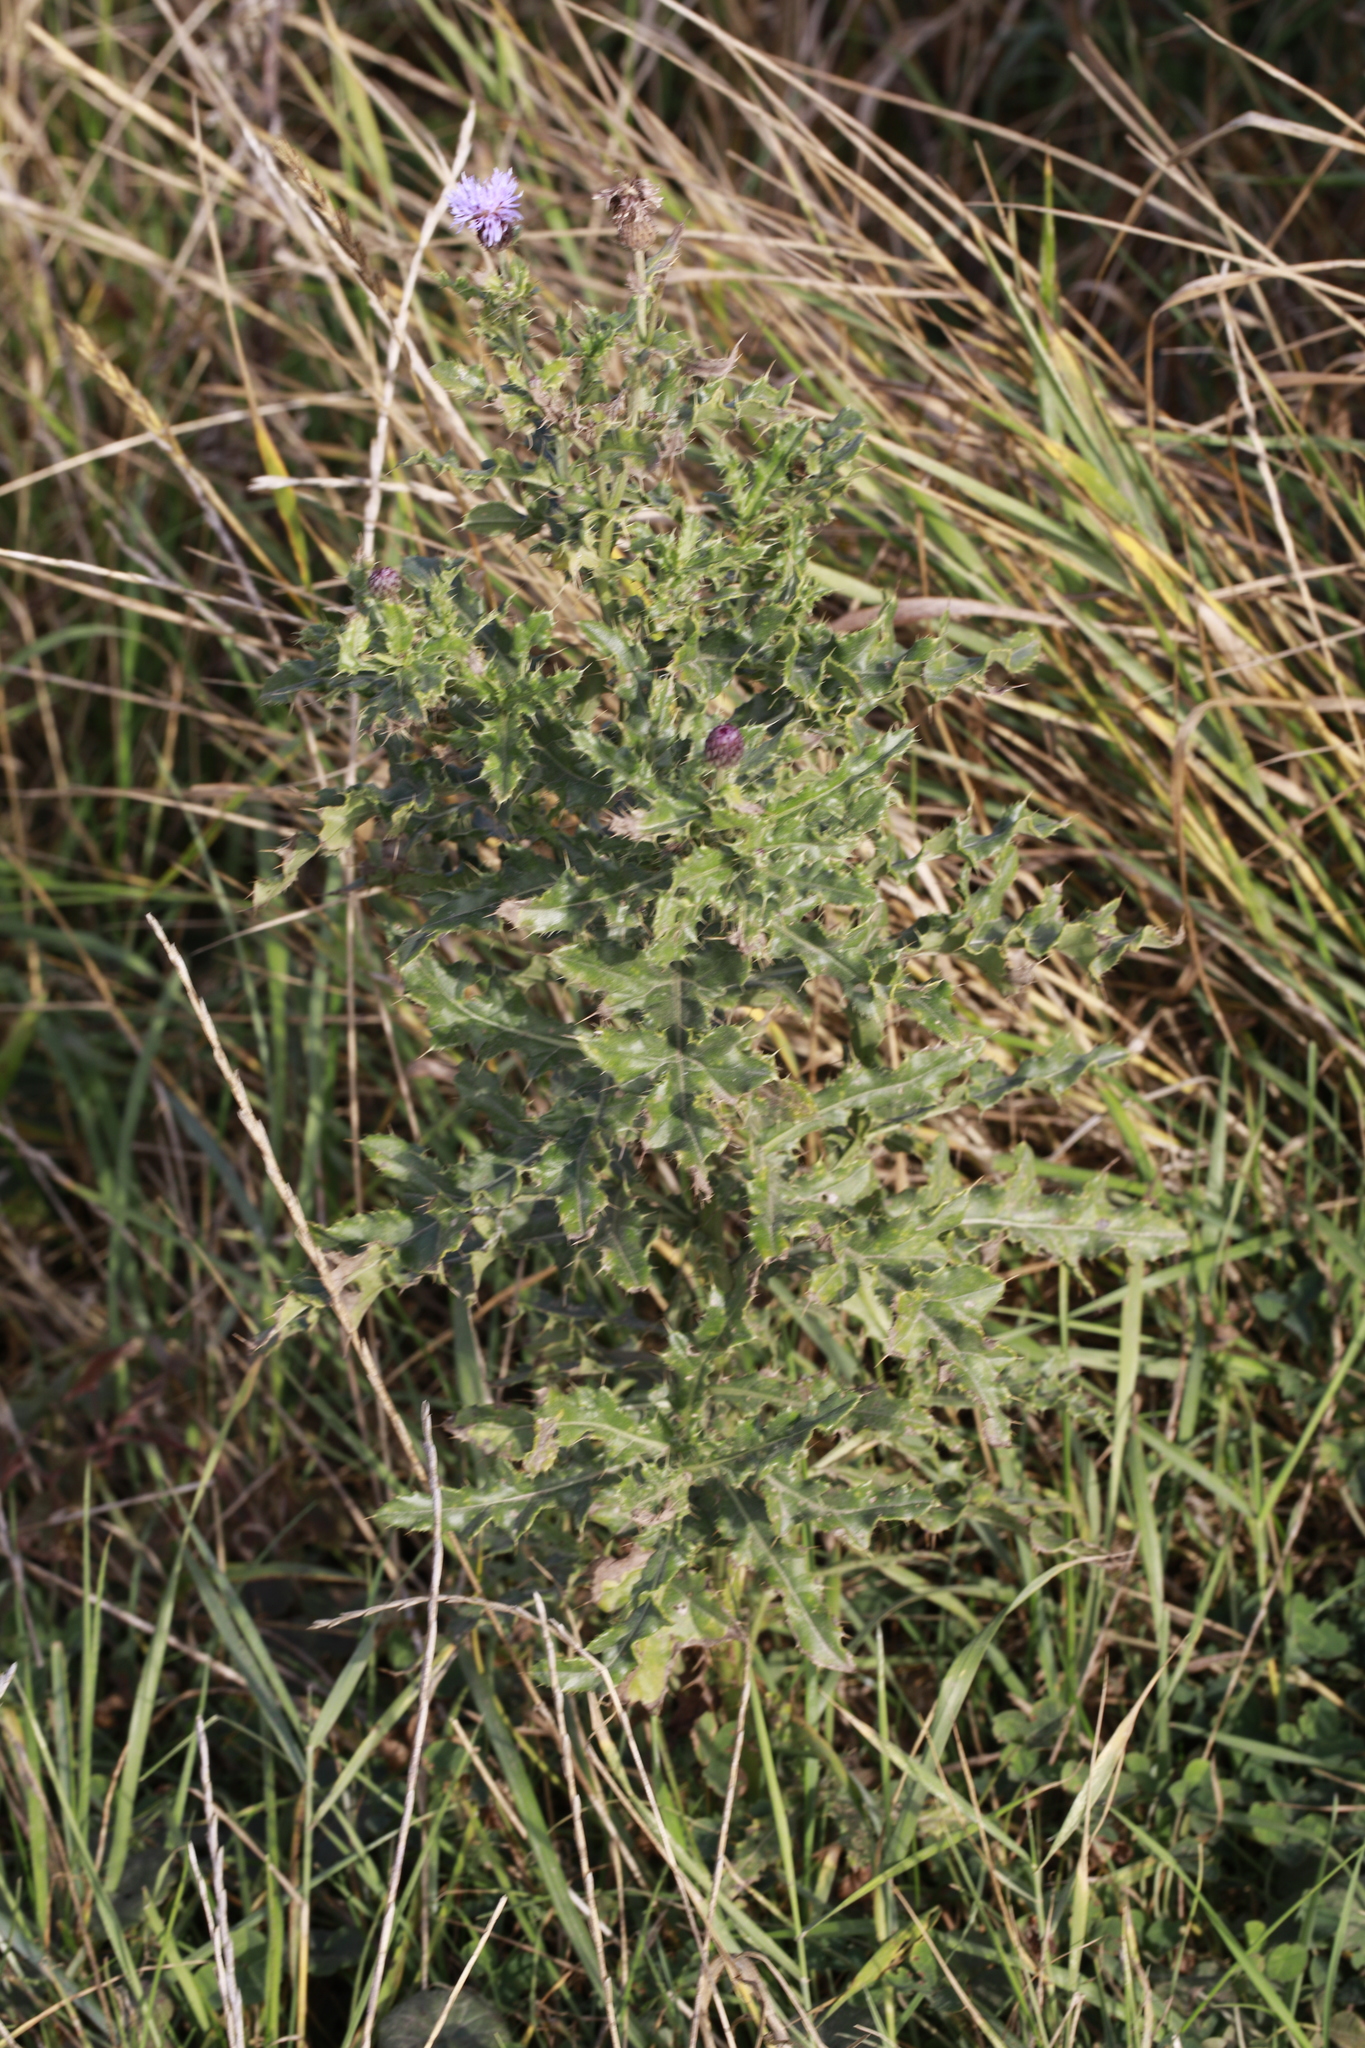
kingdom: Plantae
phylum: Tracheophyta
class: Magnoliopsida
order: Asterales
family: Asteraceae
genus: Cirsium
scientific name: Cirsium arvense
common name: Creeping thistle
